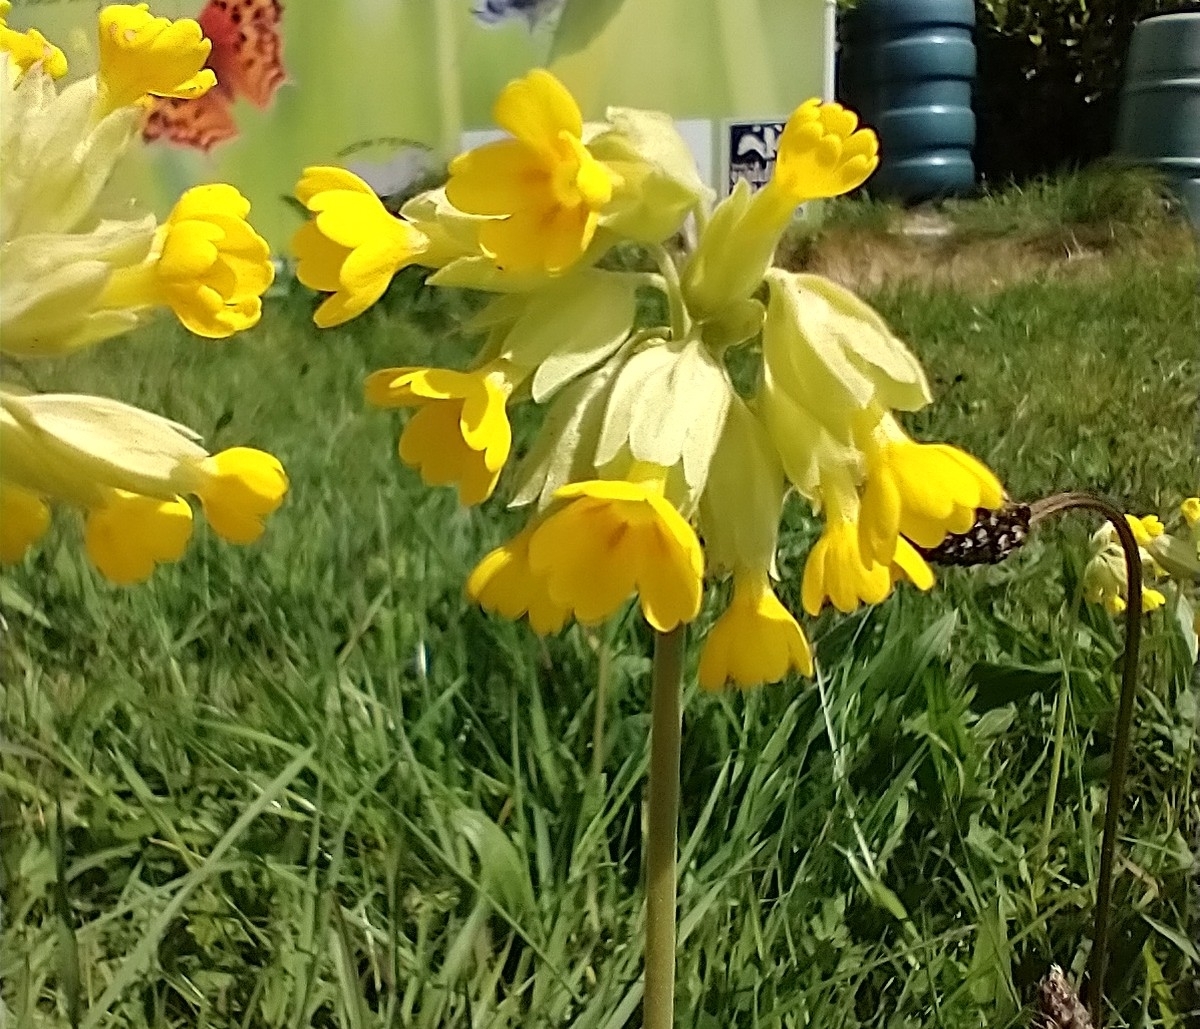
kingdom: Plantae
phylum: Tracheophyta
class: Magnoliopsida
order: Ericales
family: Primulaceae
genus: Primula
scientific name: Primula veris
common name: Cowslip
